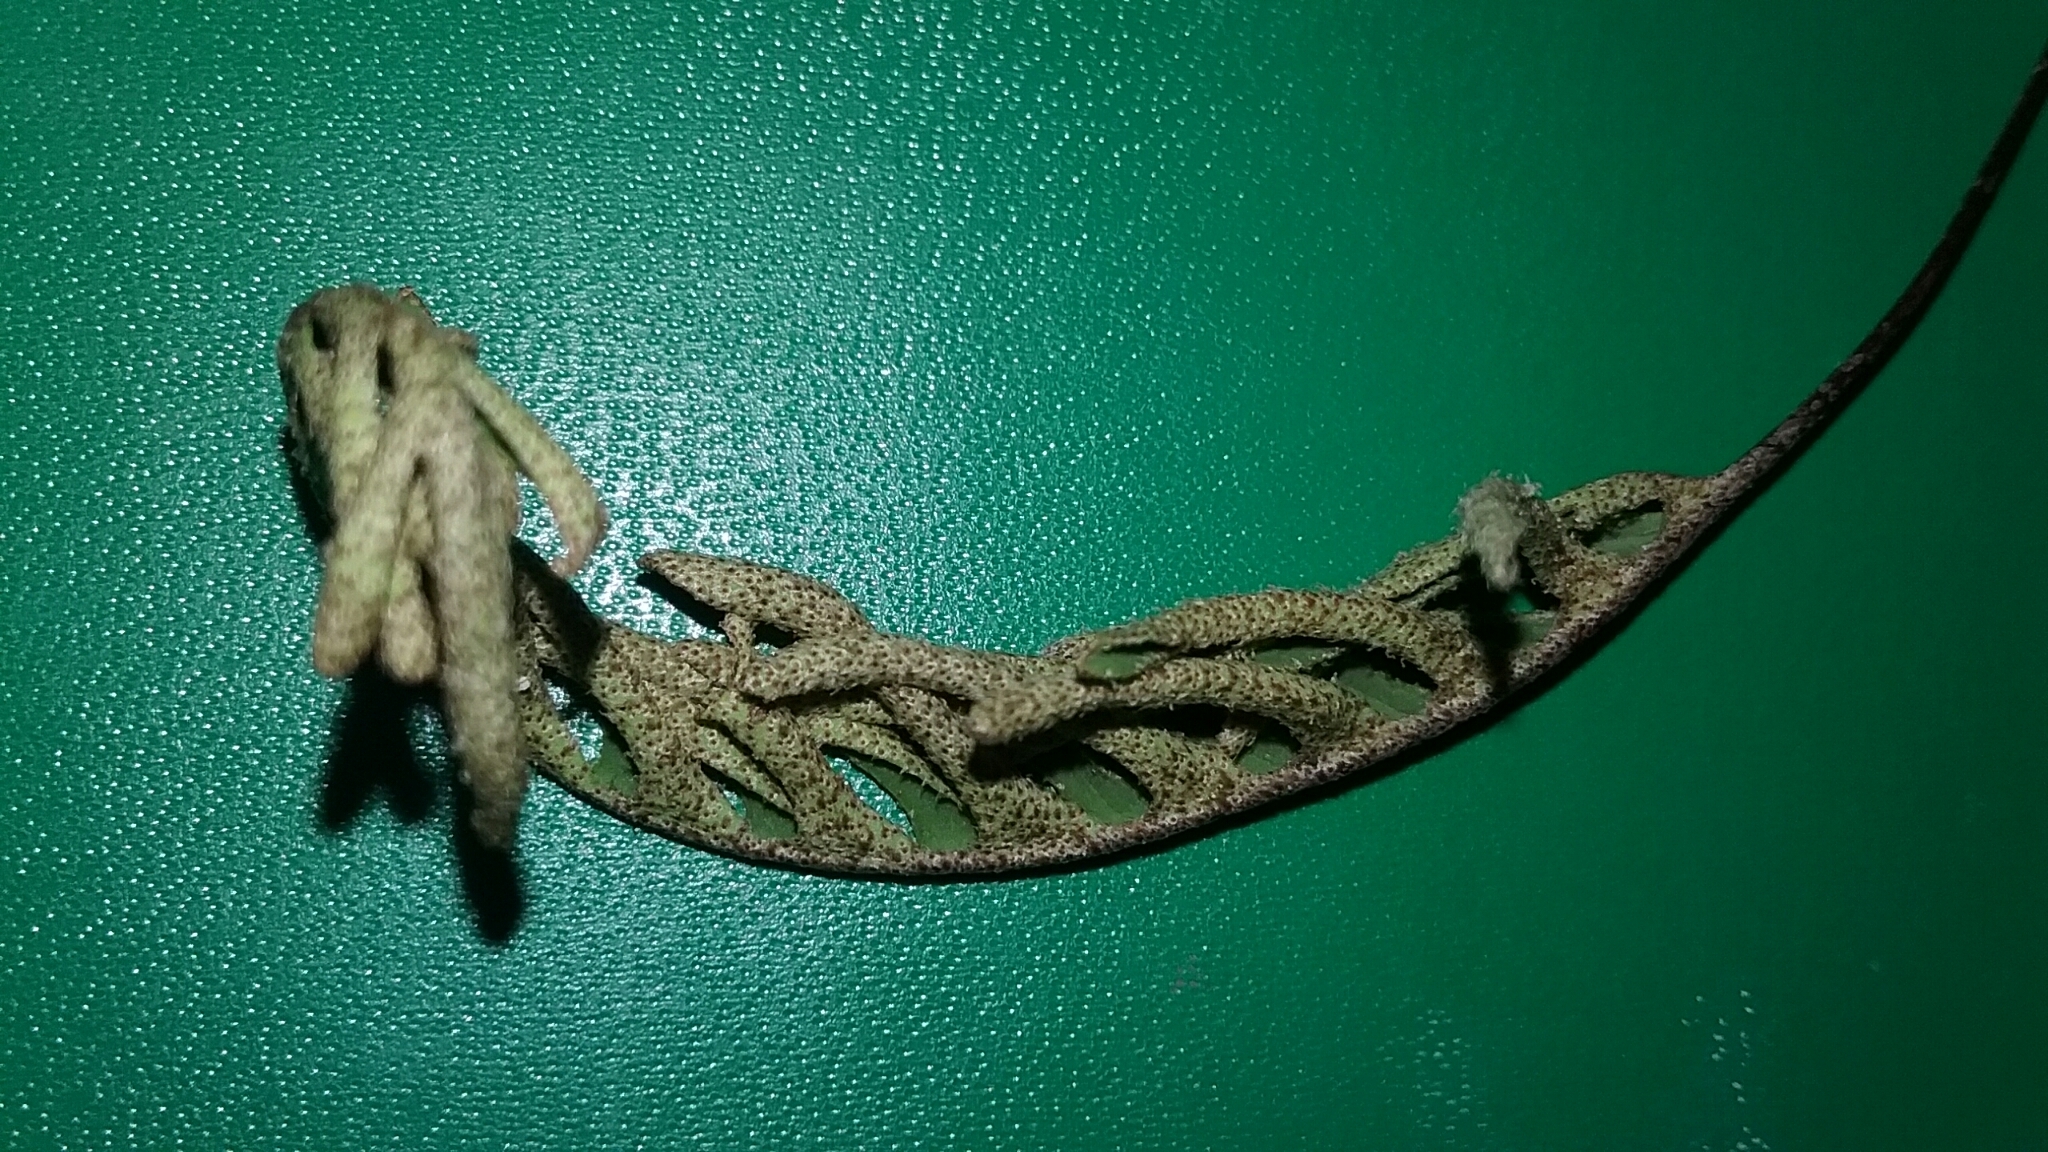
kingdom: Plantae
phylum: Tracheophyta
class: Polypodiopsida
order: Polypodiales
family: Polypodiaceae
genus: Pleopeltis
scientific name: Pleopeltis michauxiana
